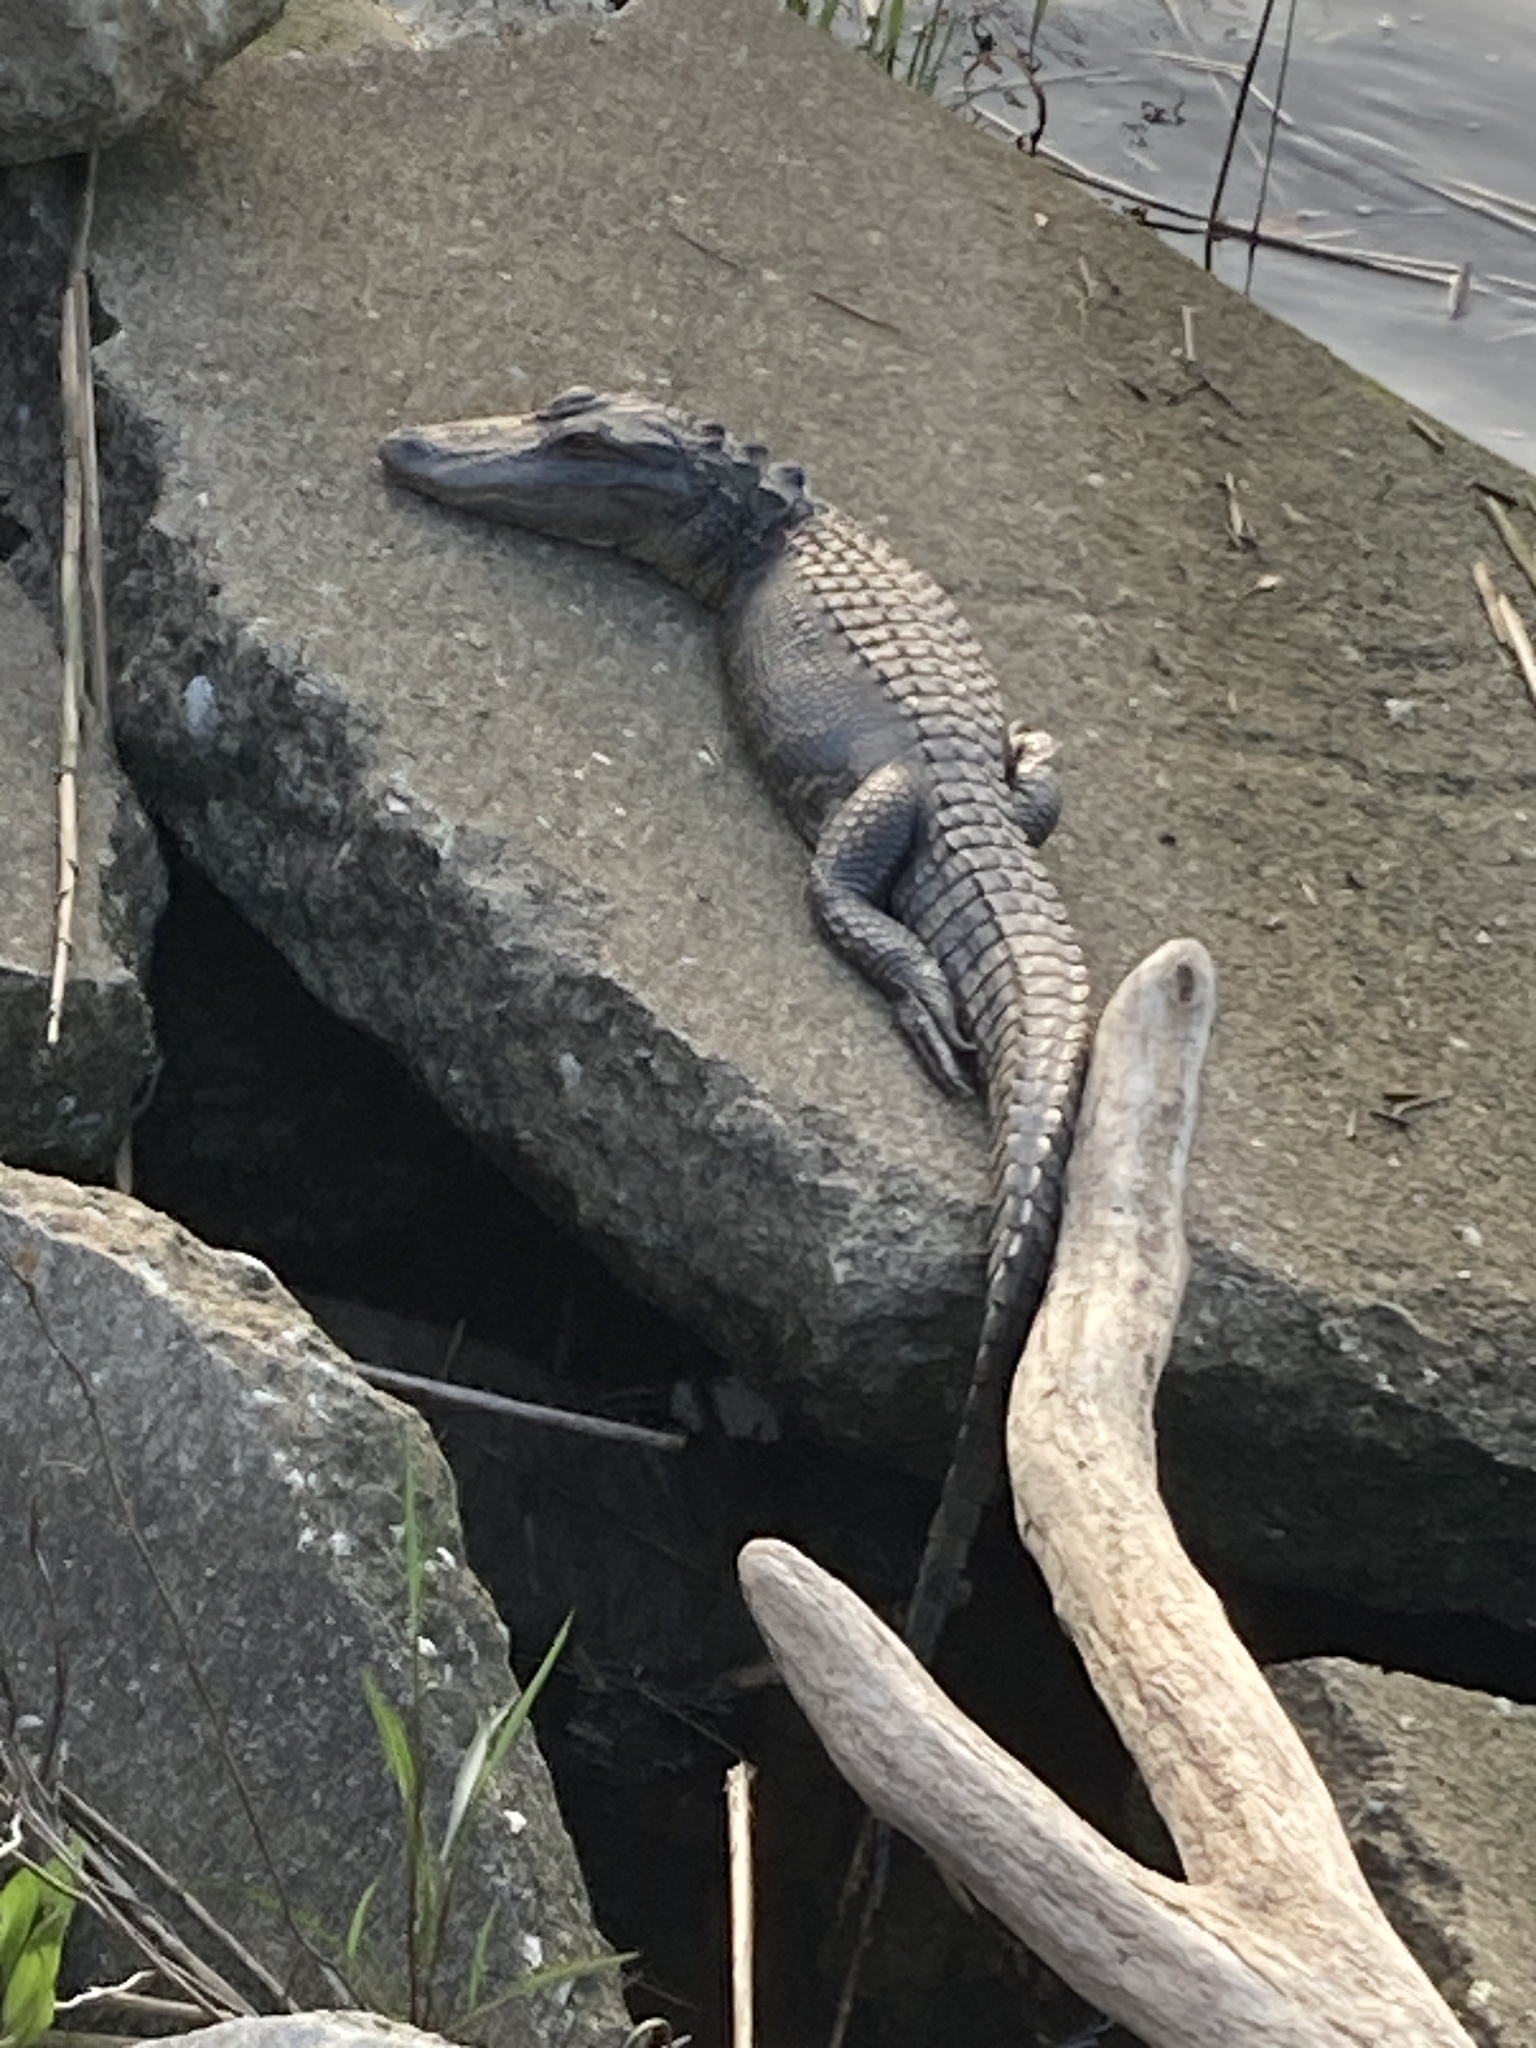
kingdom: Animalia
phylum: Chordata
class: Crocodylia
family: Alligatoridae
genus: Alligator
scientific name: Alligator mississippiensis
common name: American alligator
